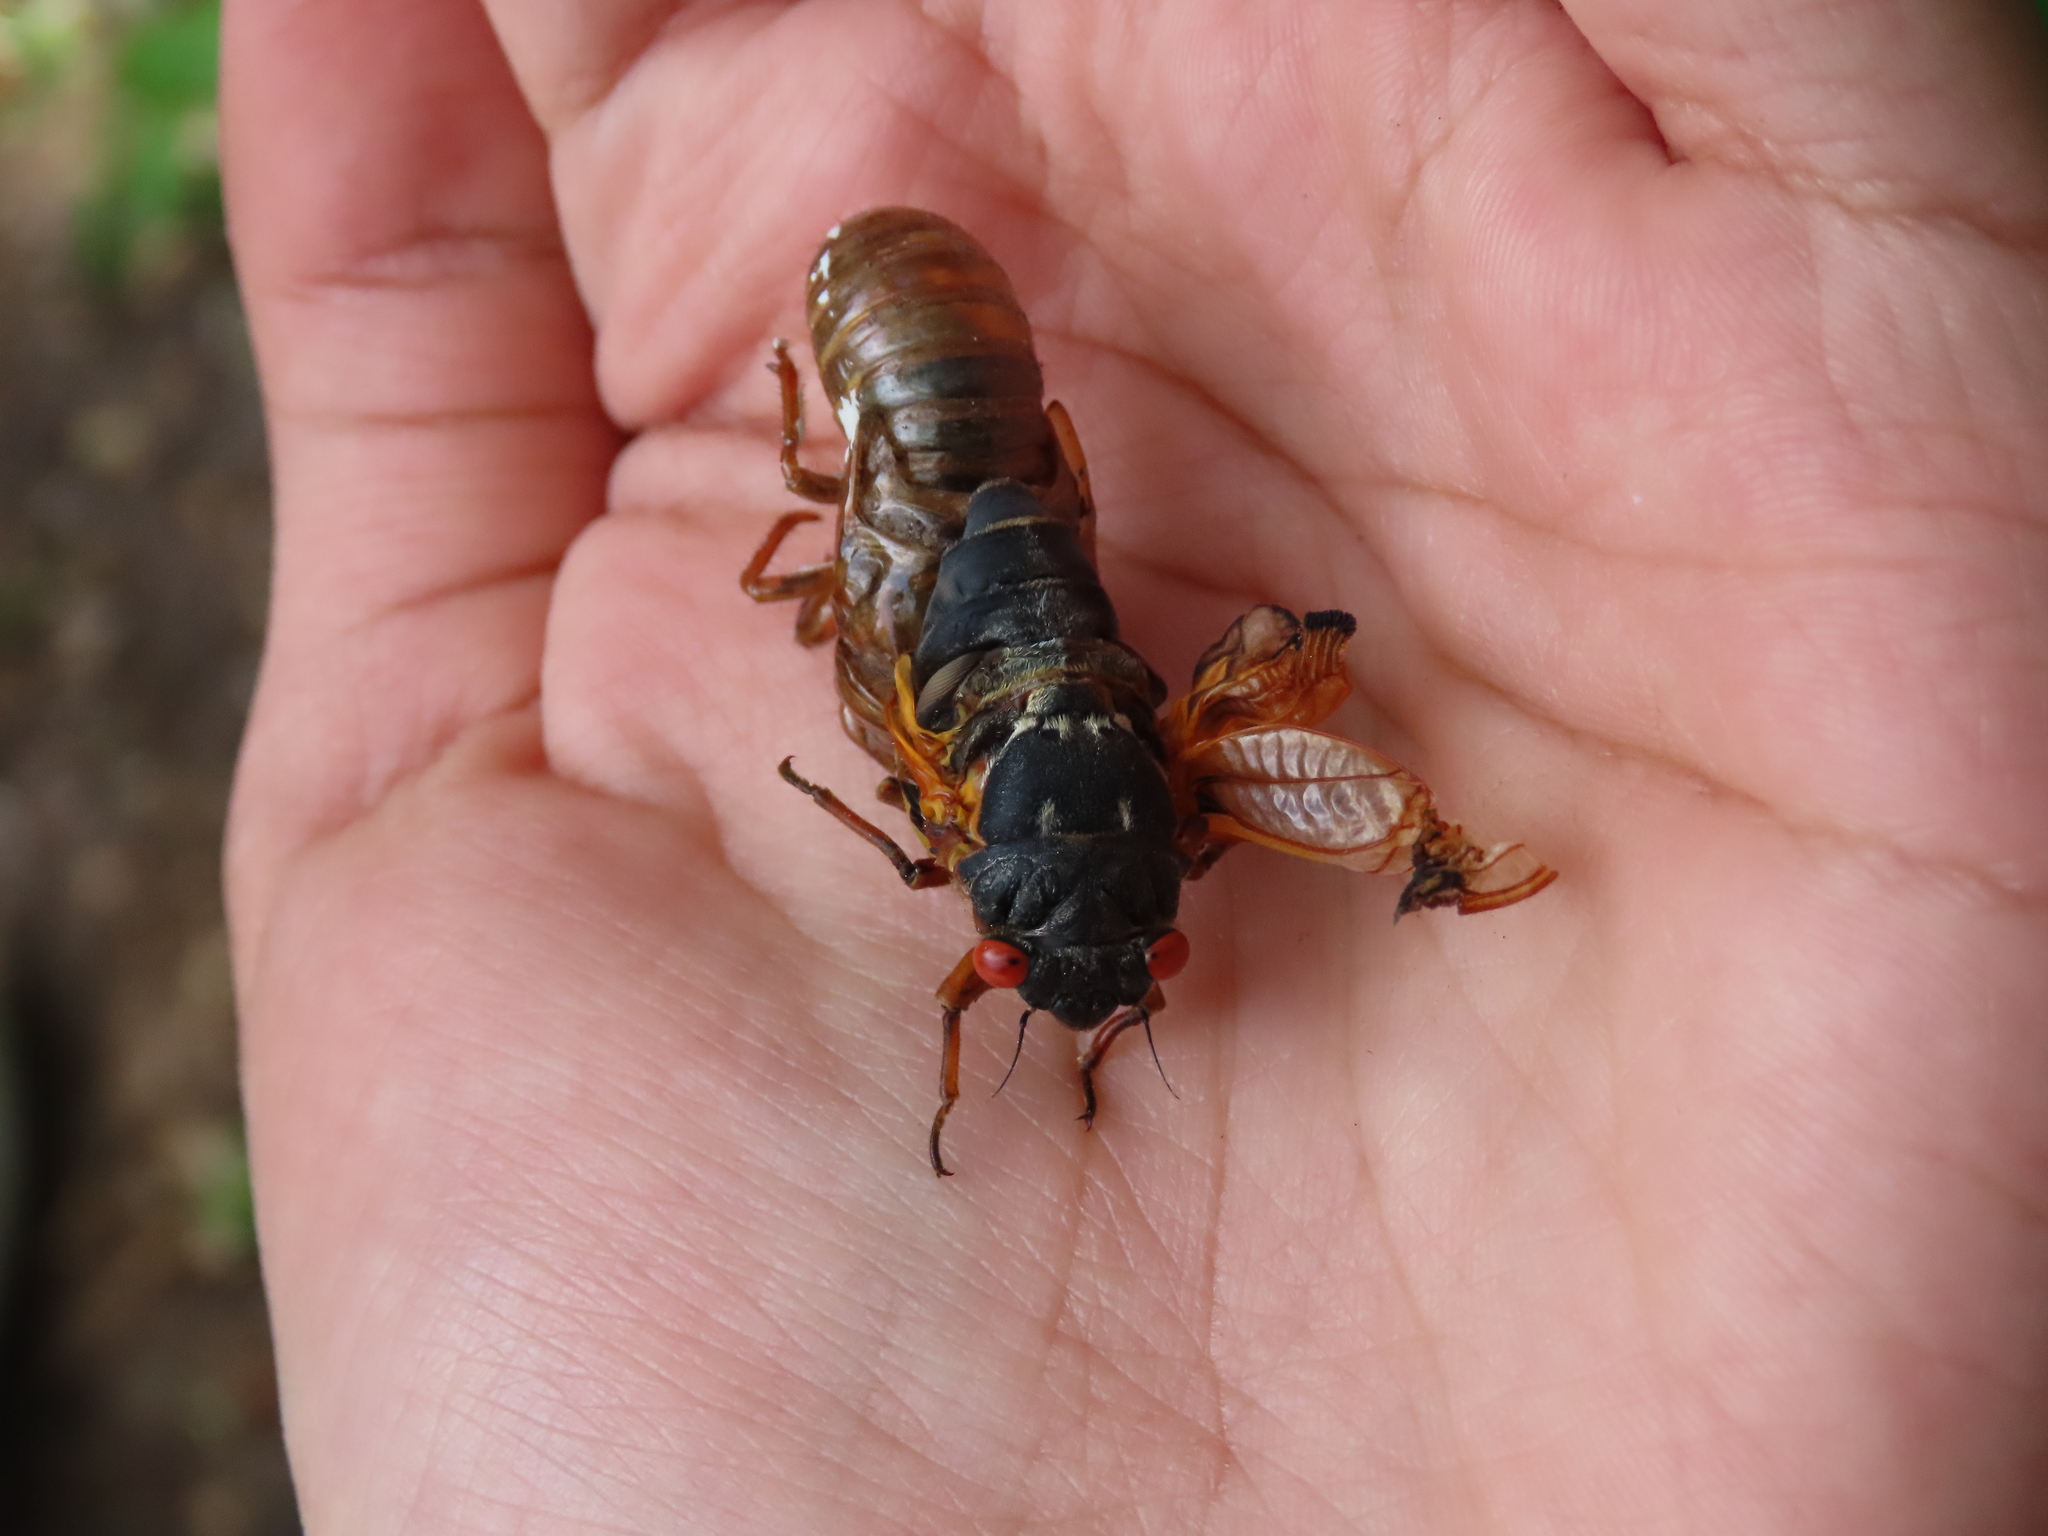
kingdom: Animalia
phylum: Arthropoda
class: Insecta
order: Hemiptera
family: Cicadidae
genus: Magicicada
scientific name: Magicicada septendecim
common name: Periodical cicada
